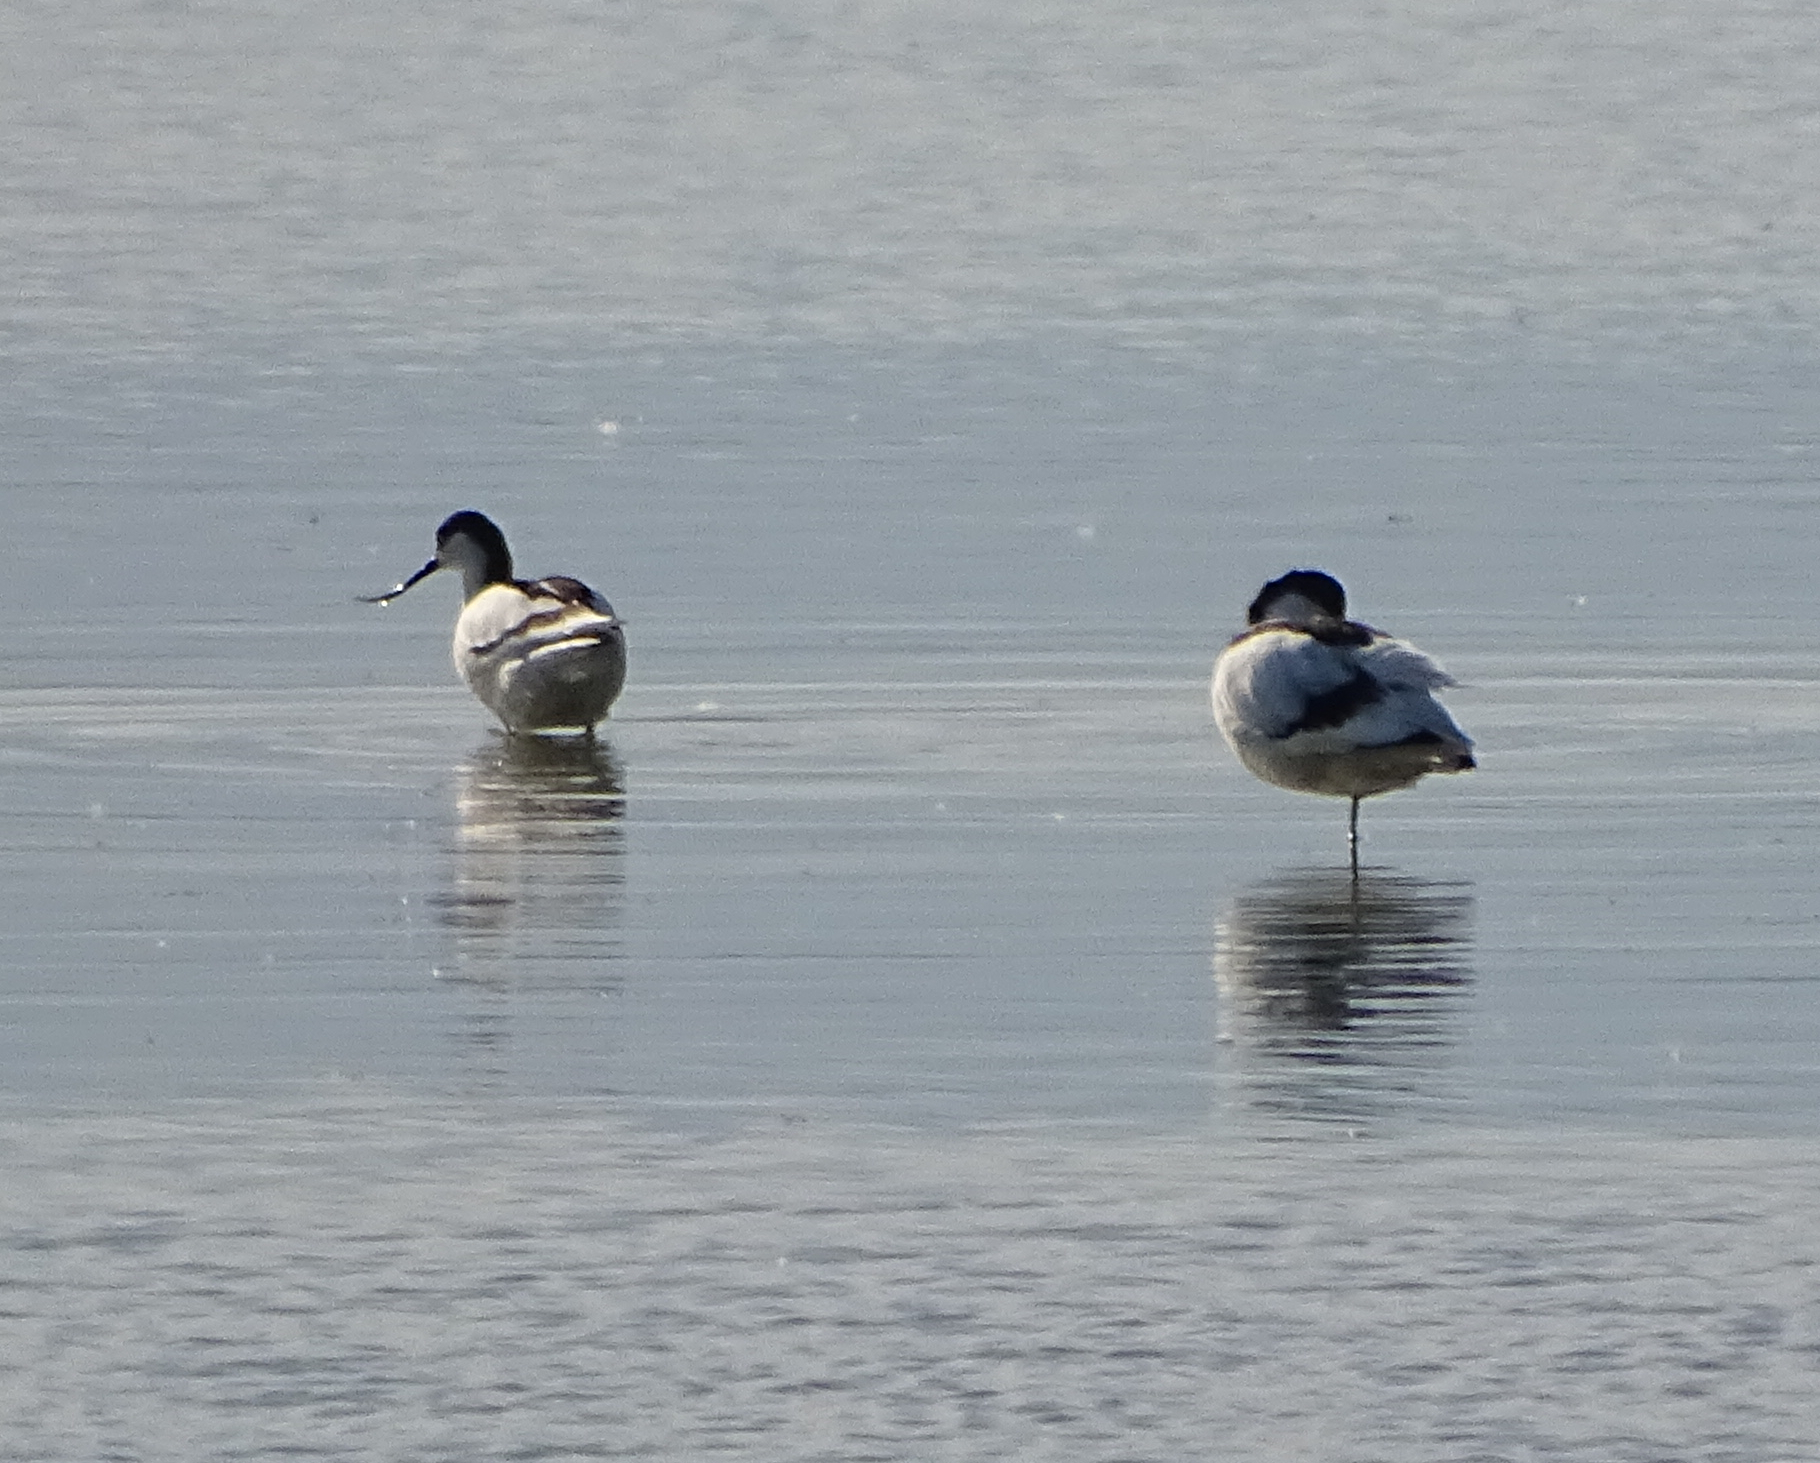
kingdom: Animalia
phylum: Chordata
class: Aves
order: Charadriiformes
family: Recurvirostridae
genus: Recurvirostra
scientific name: Recurvirostra avosetta
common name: Pied avocet
